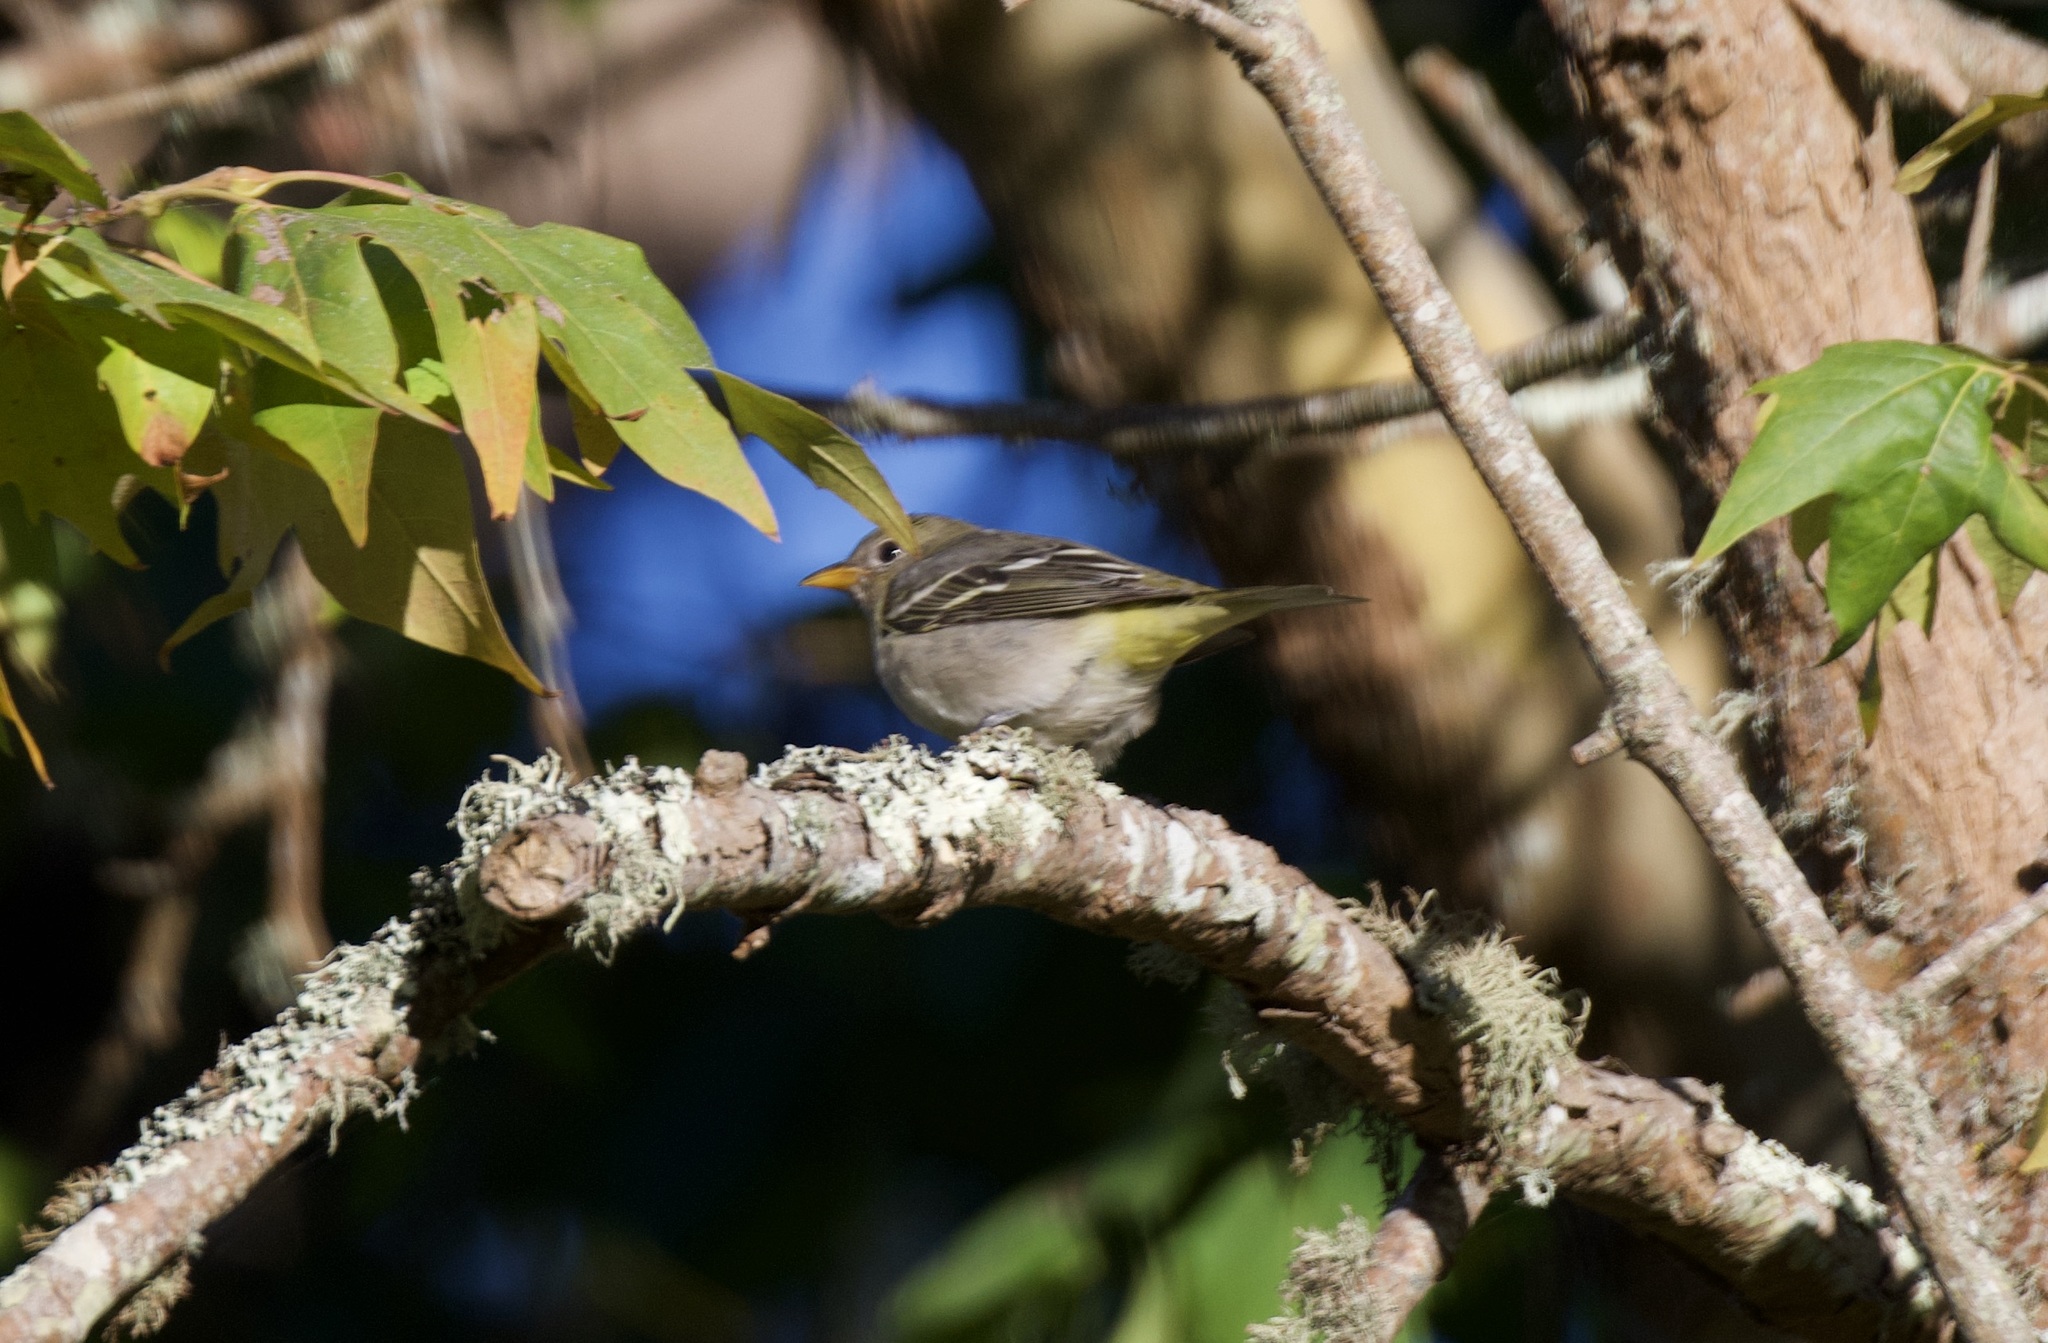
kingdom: Animalia
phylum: Chordata
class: Aves
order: Passeriformes
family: Cardinalidae
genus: Piranga
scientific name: Piranga ludoviciana
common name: Western tanager
